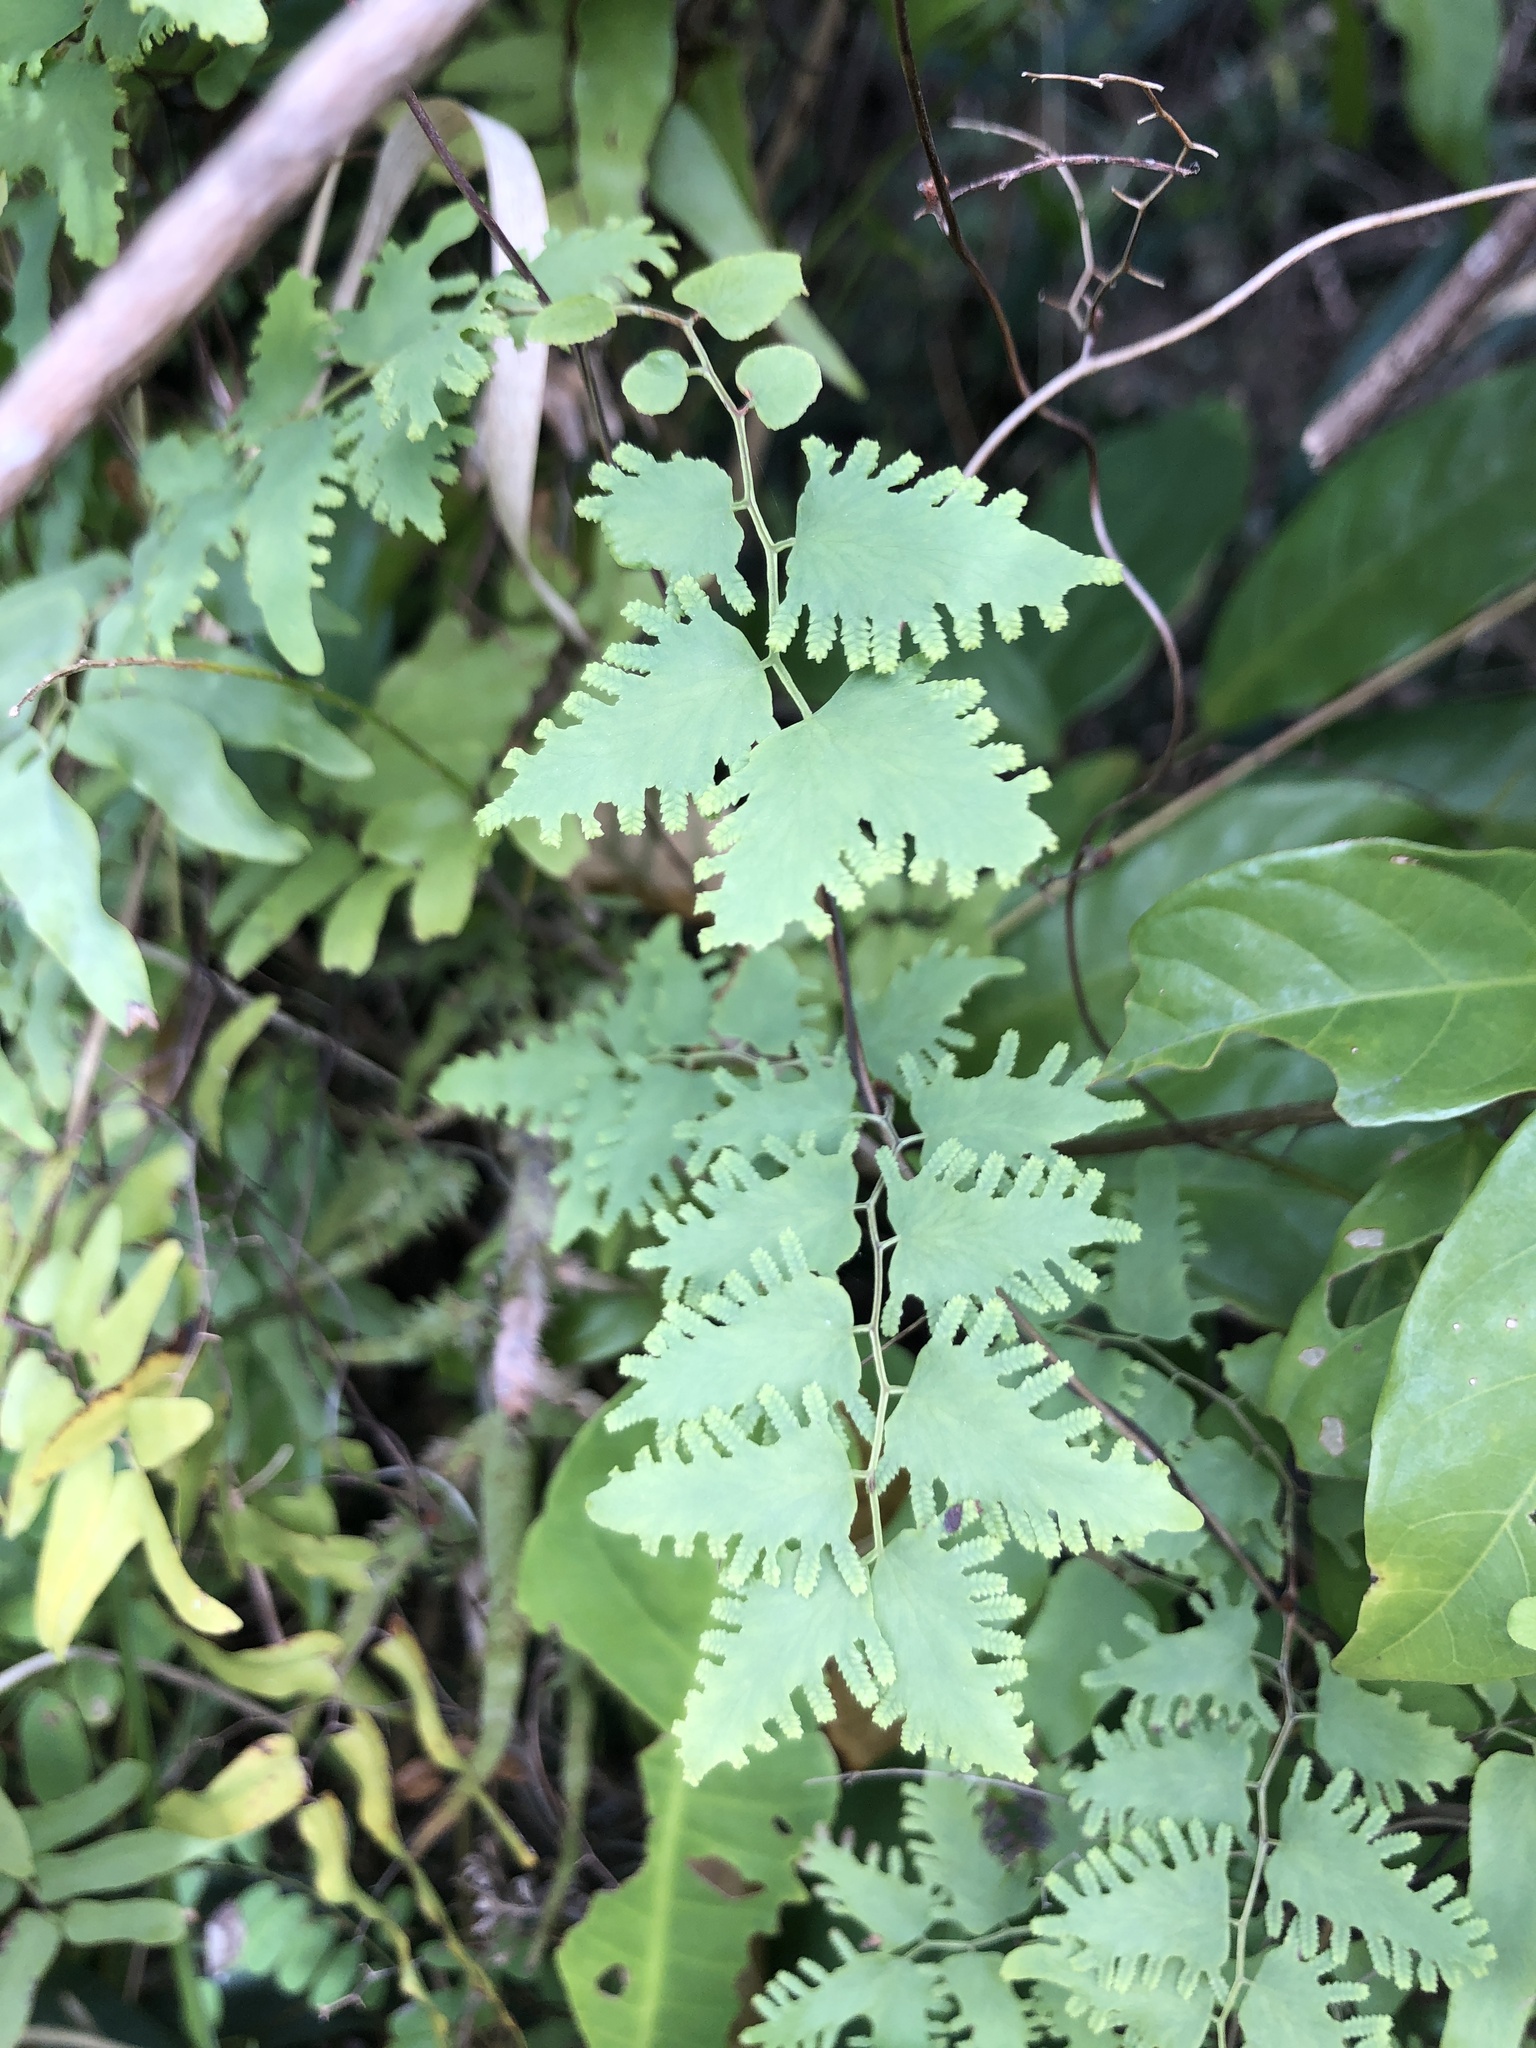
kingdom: Plantae
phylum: Tracheophyta
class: Polypodiopsida
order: Schizaeales
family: Lygodiaceae
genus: Lygodium
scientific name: Lygodium microphyllum
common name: Small-leaf climbing fern
